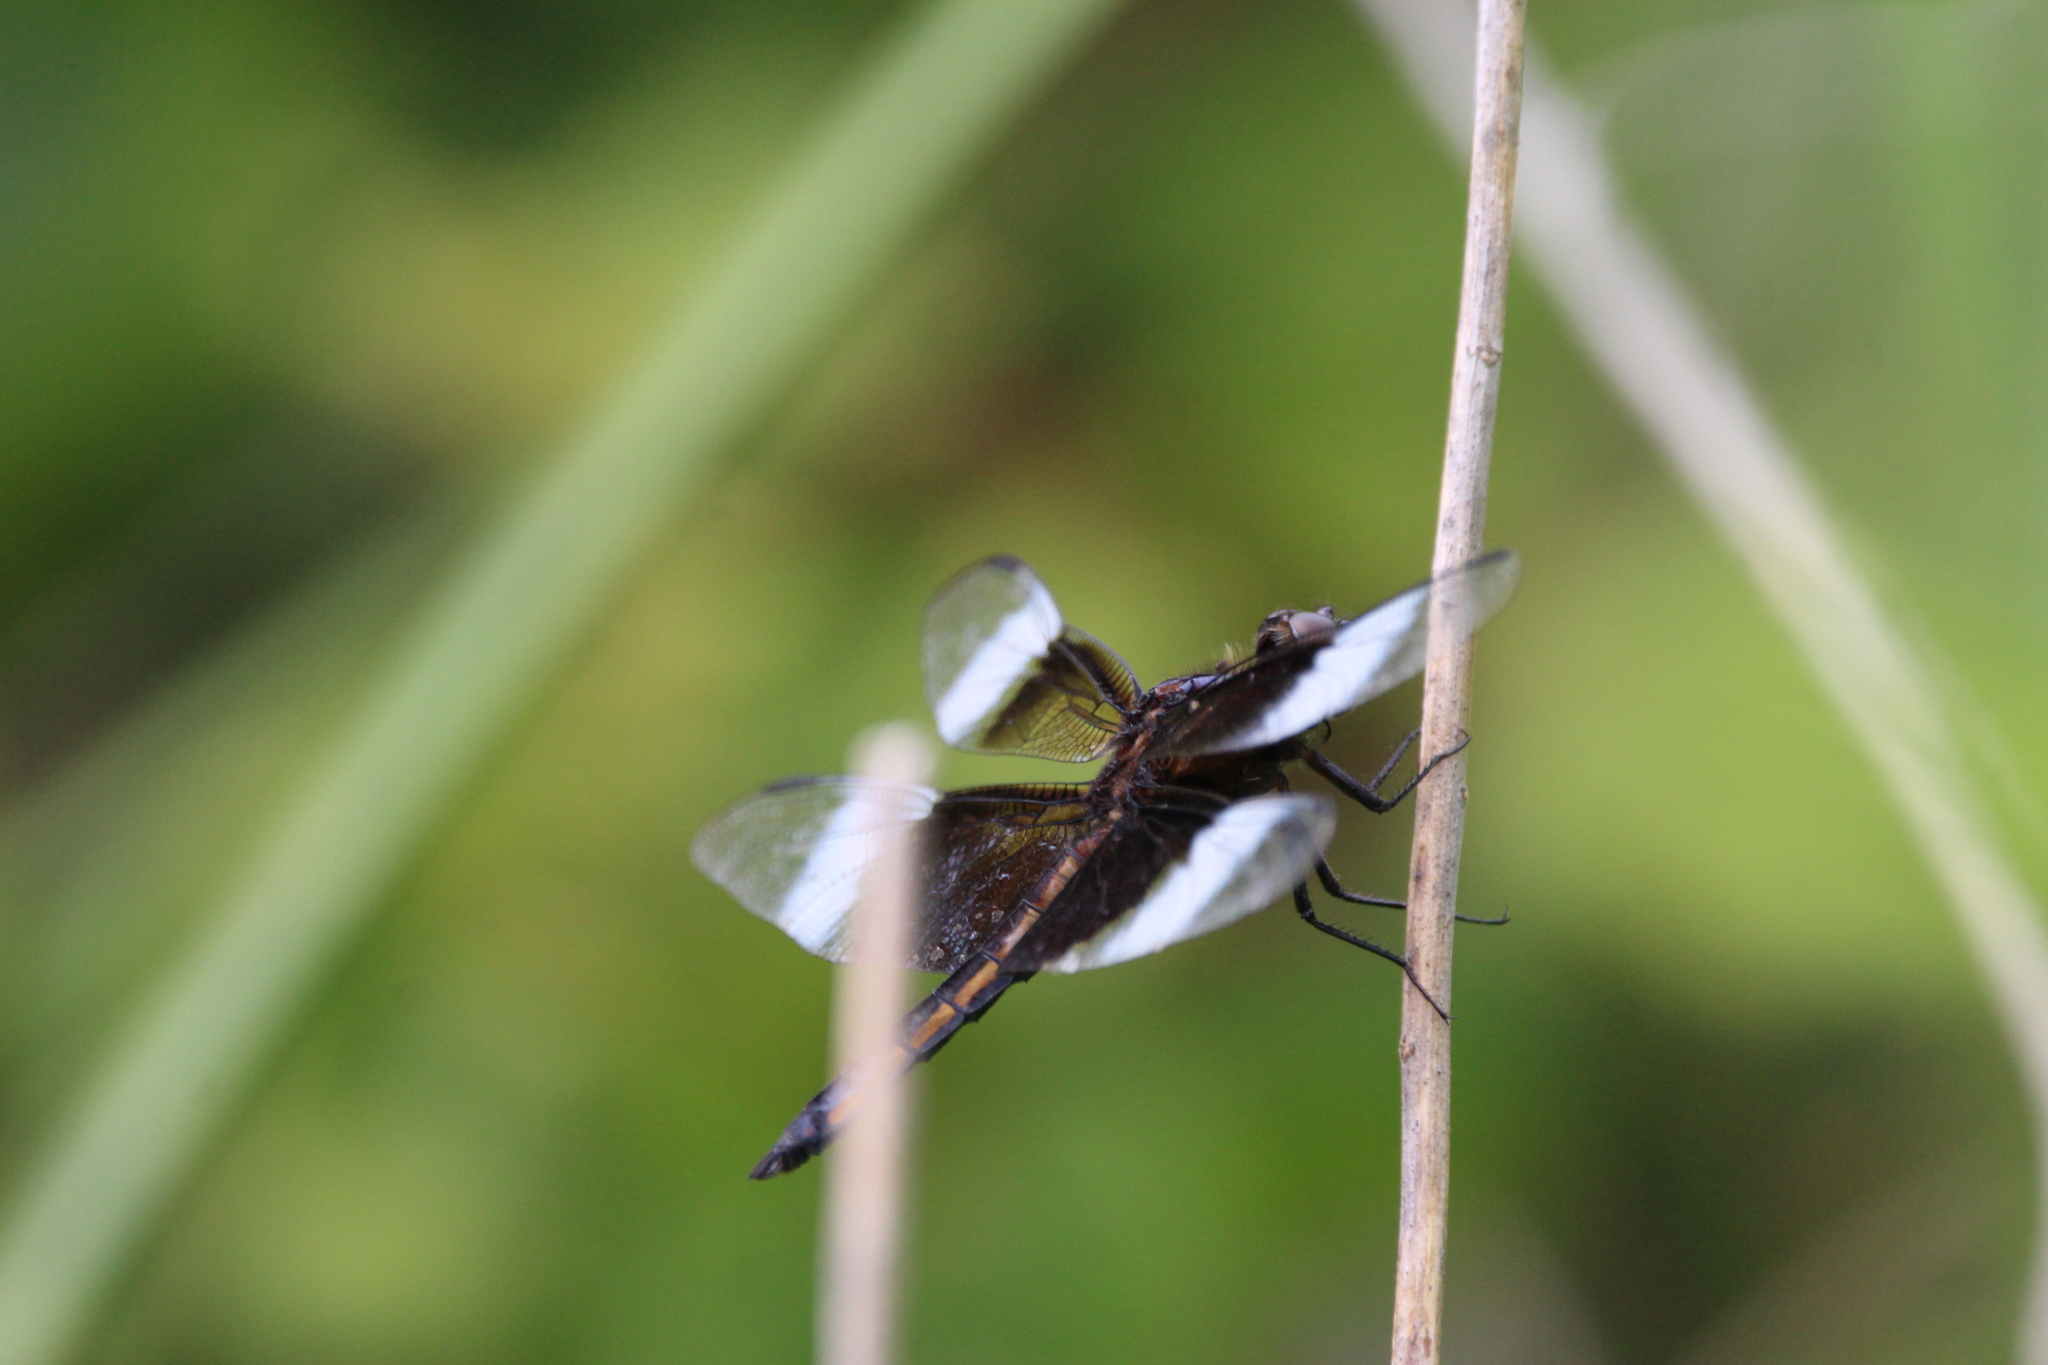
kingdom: Animalia
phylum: Arthropoda
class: Insecta
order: Odonata
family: Libellulidae
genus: Libellula
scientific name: Libellula luctuosa
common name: Widow skimmer
